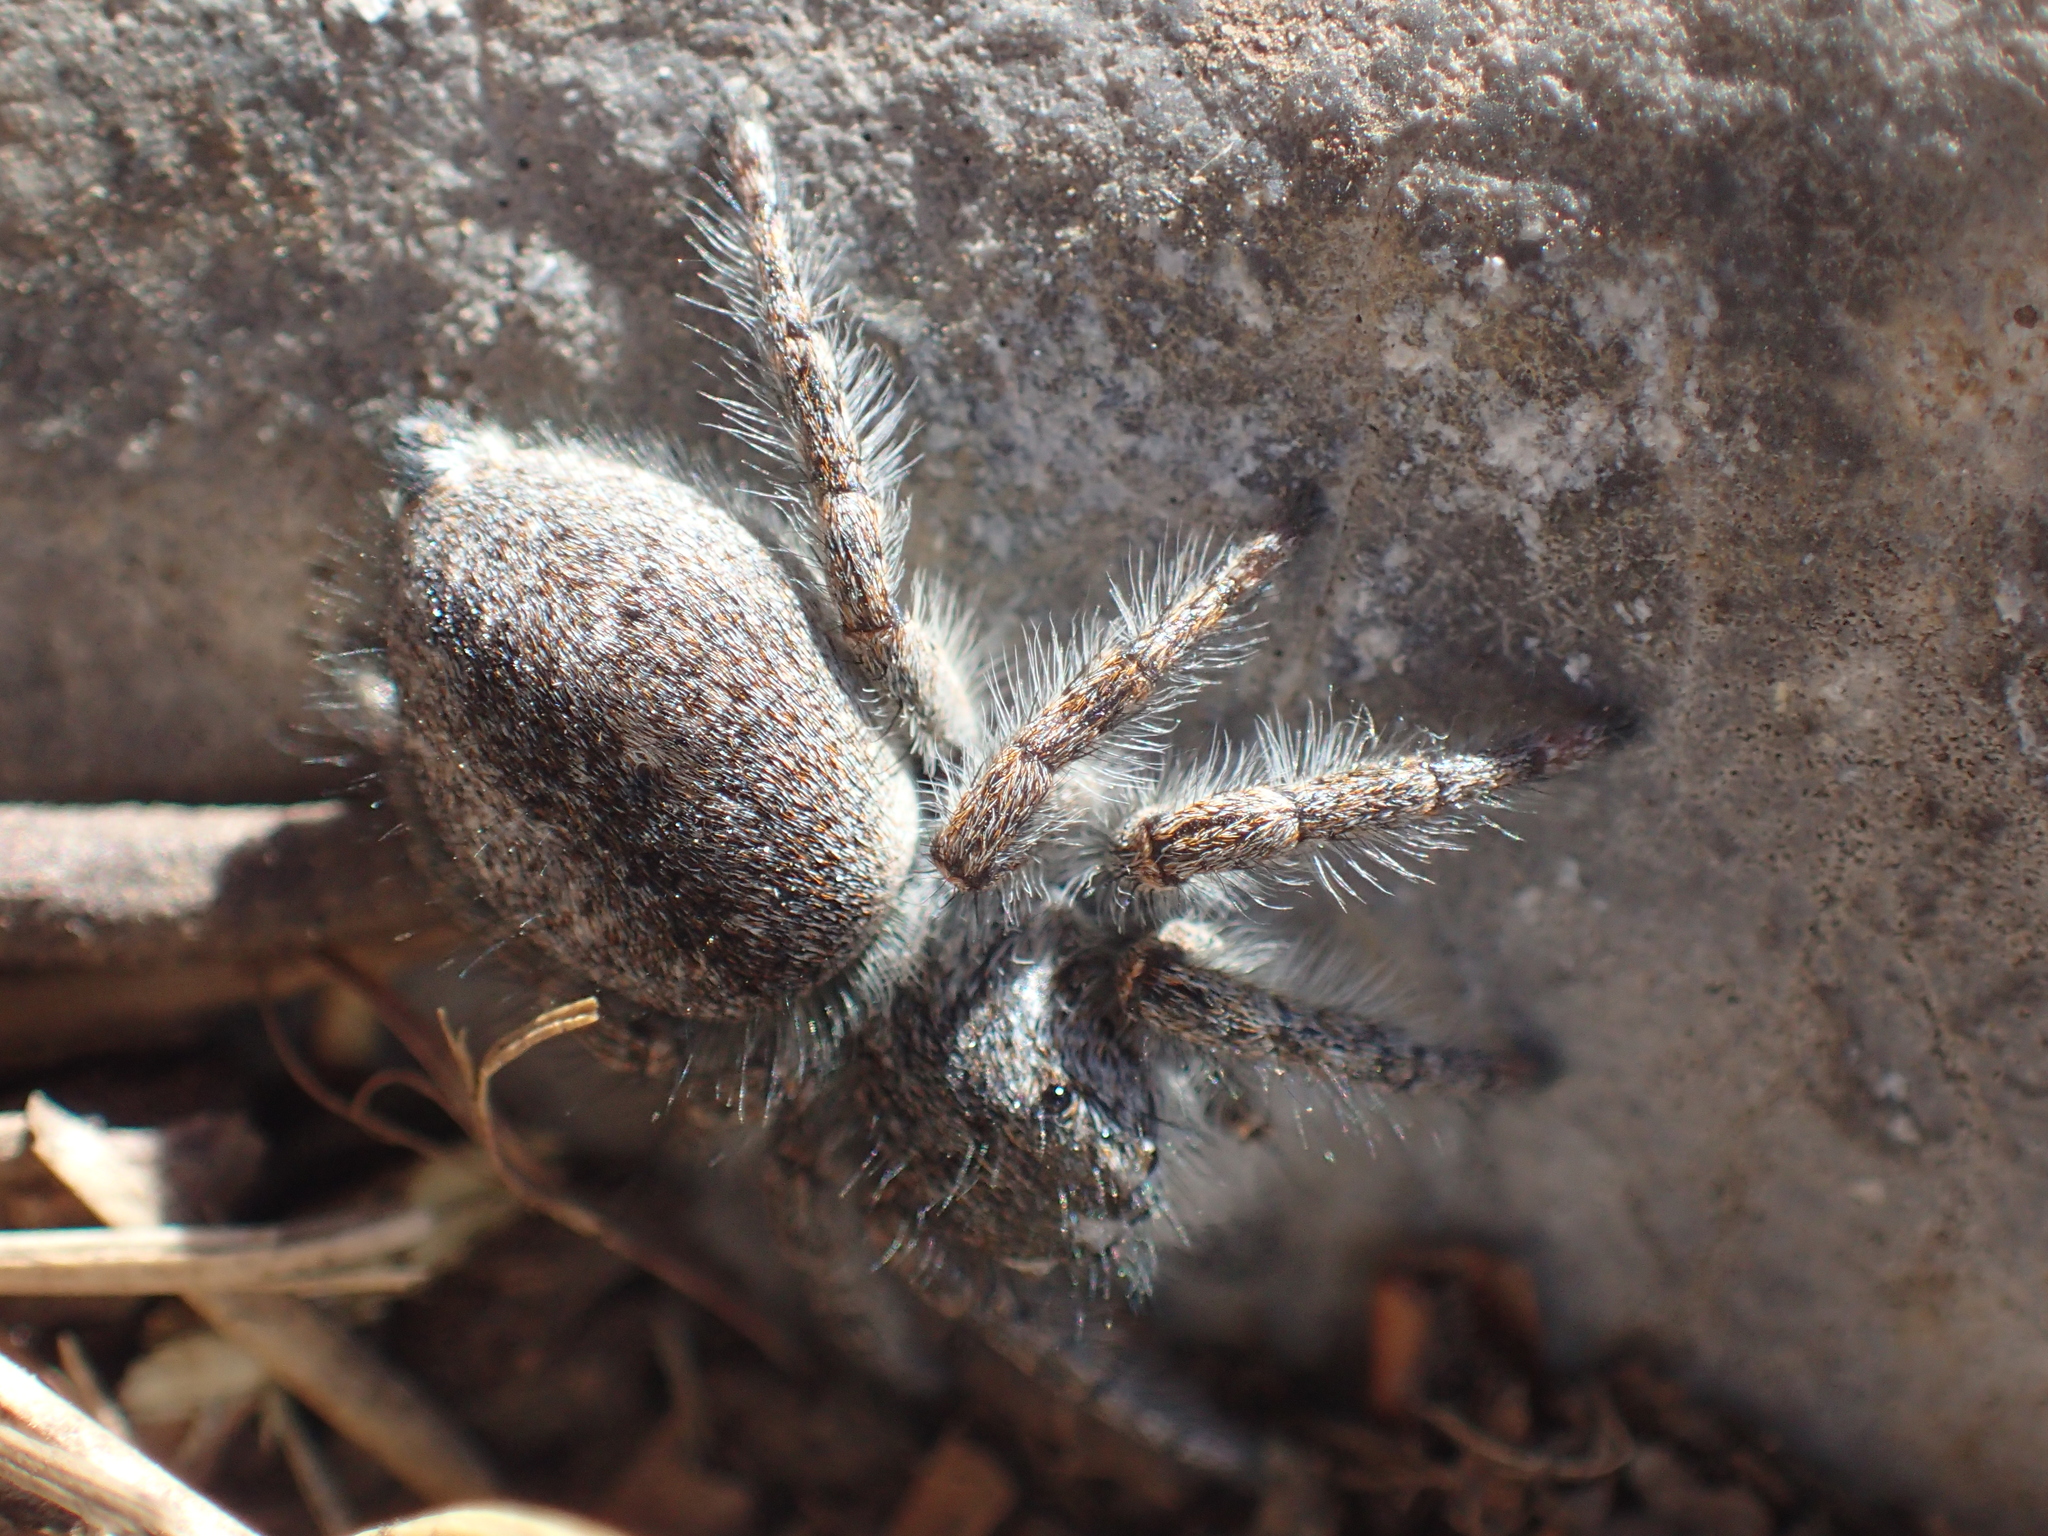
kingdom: Animalia
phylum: Arthropoda
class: Arachnida
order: Araneae
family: Salticidae
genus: Philaeus
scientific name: Philaeus chrysops
